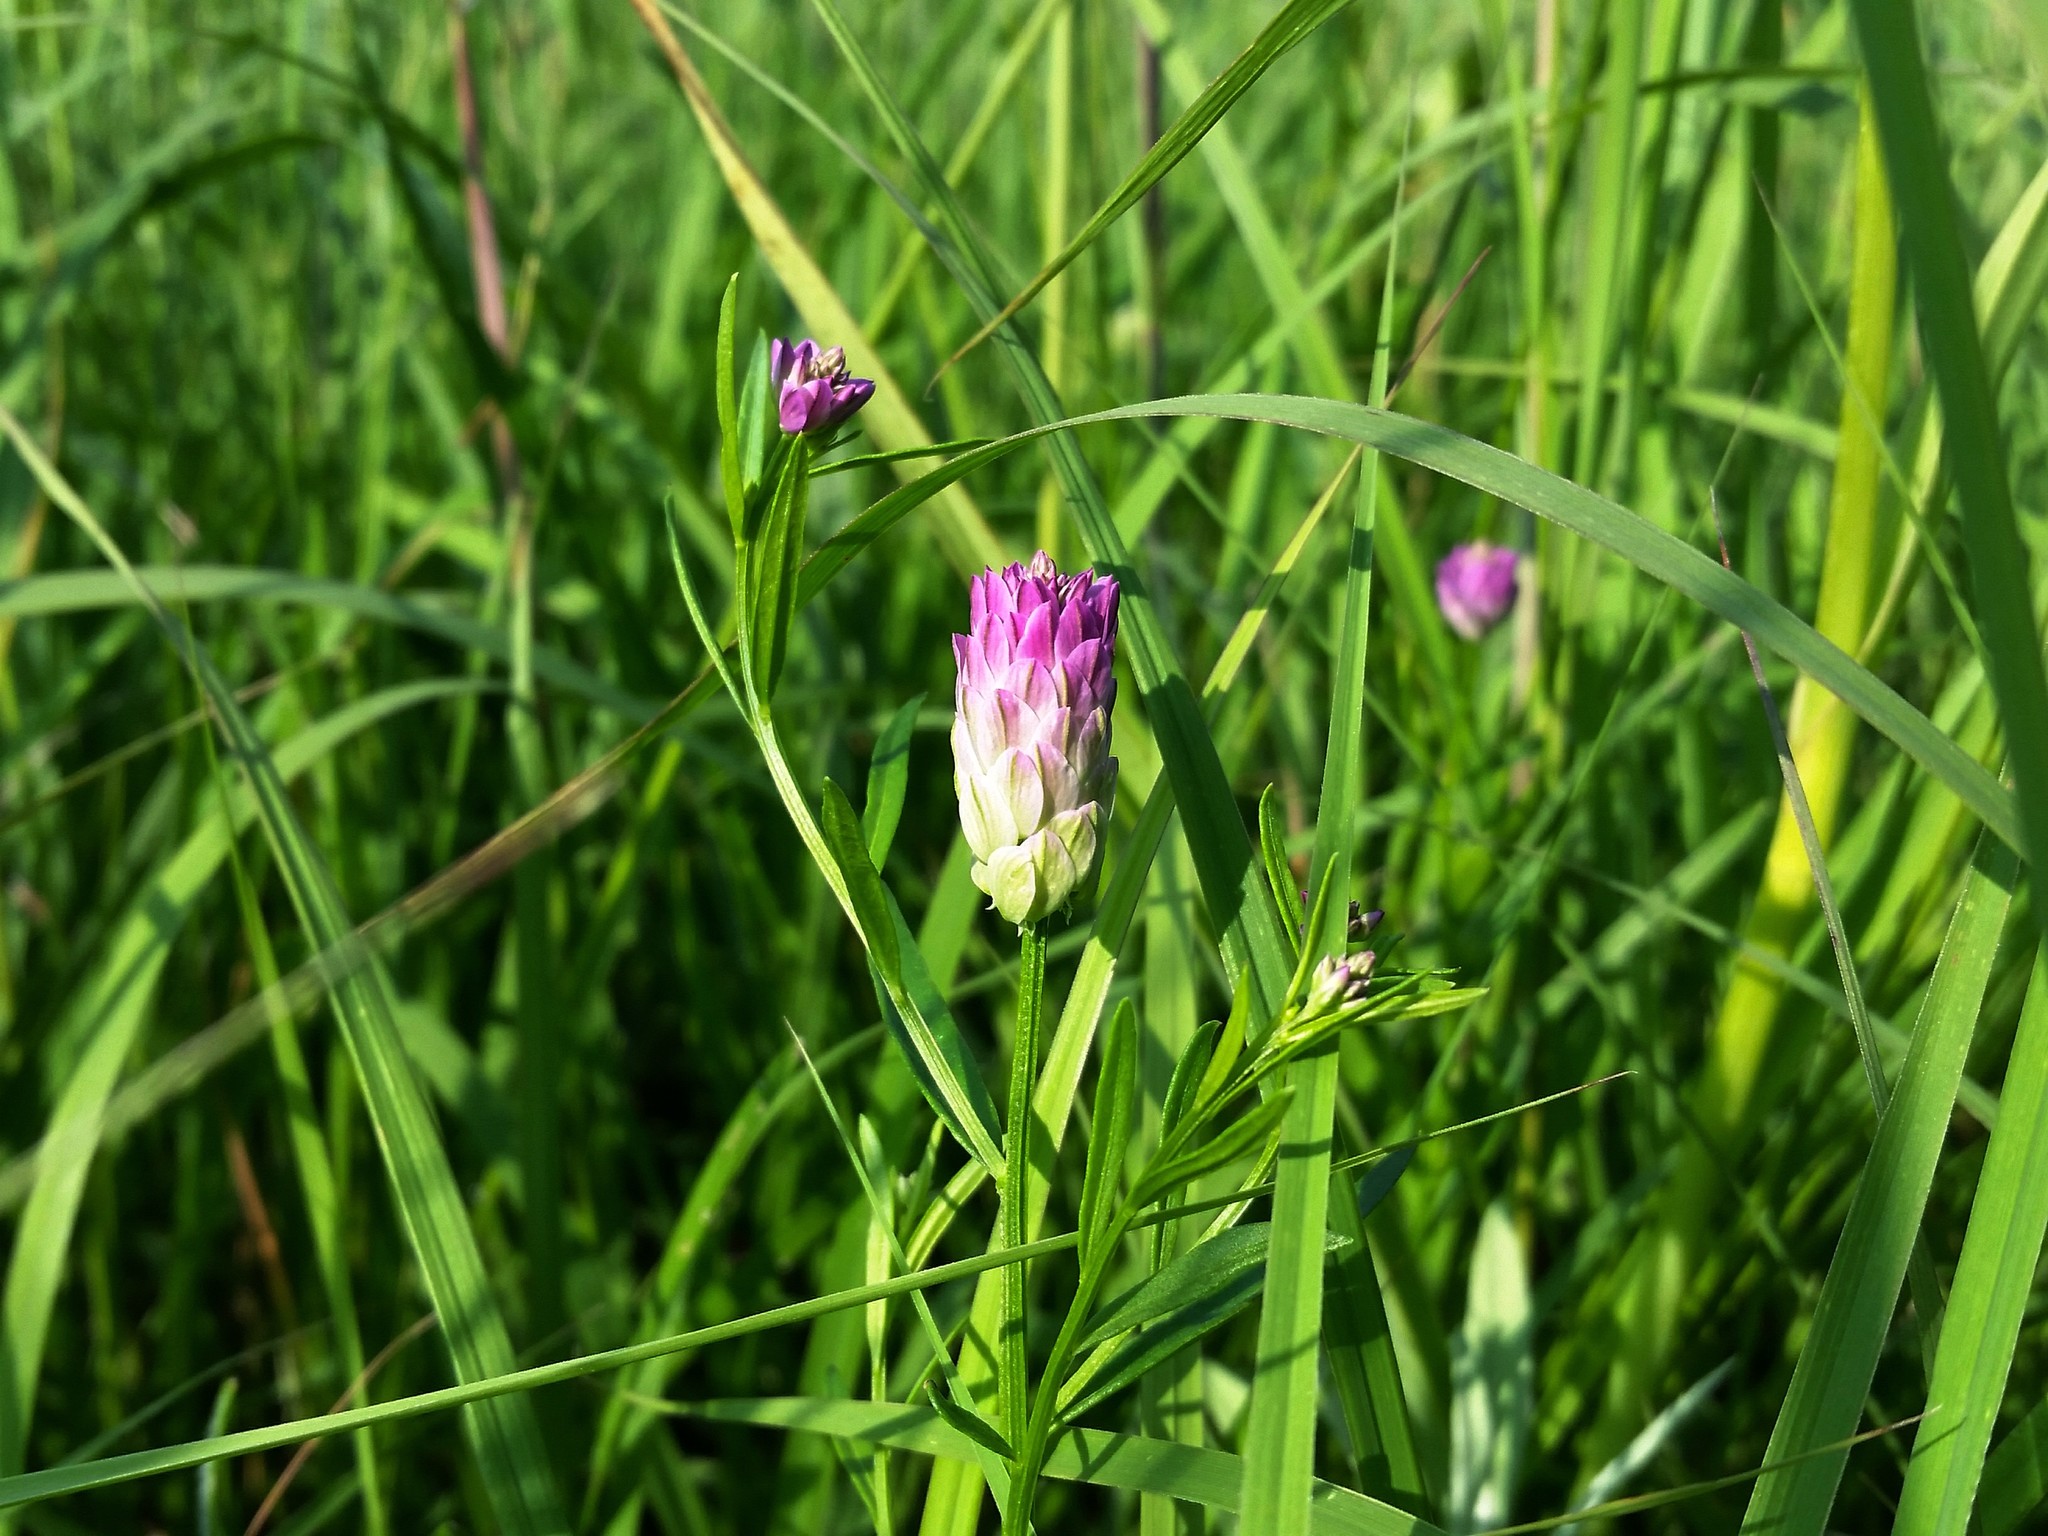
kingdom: Plantae
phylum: Tracheophyta
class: Magnoliopsida
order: Fabales
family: Polygalaceae
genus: Polygala
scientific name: Polygala sanguinea
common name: Blood milkwort
